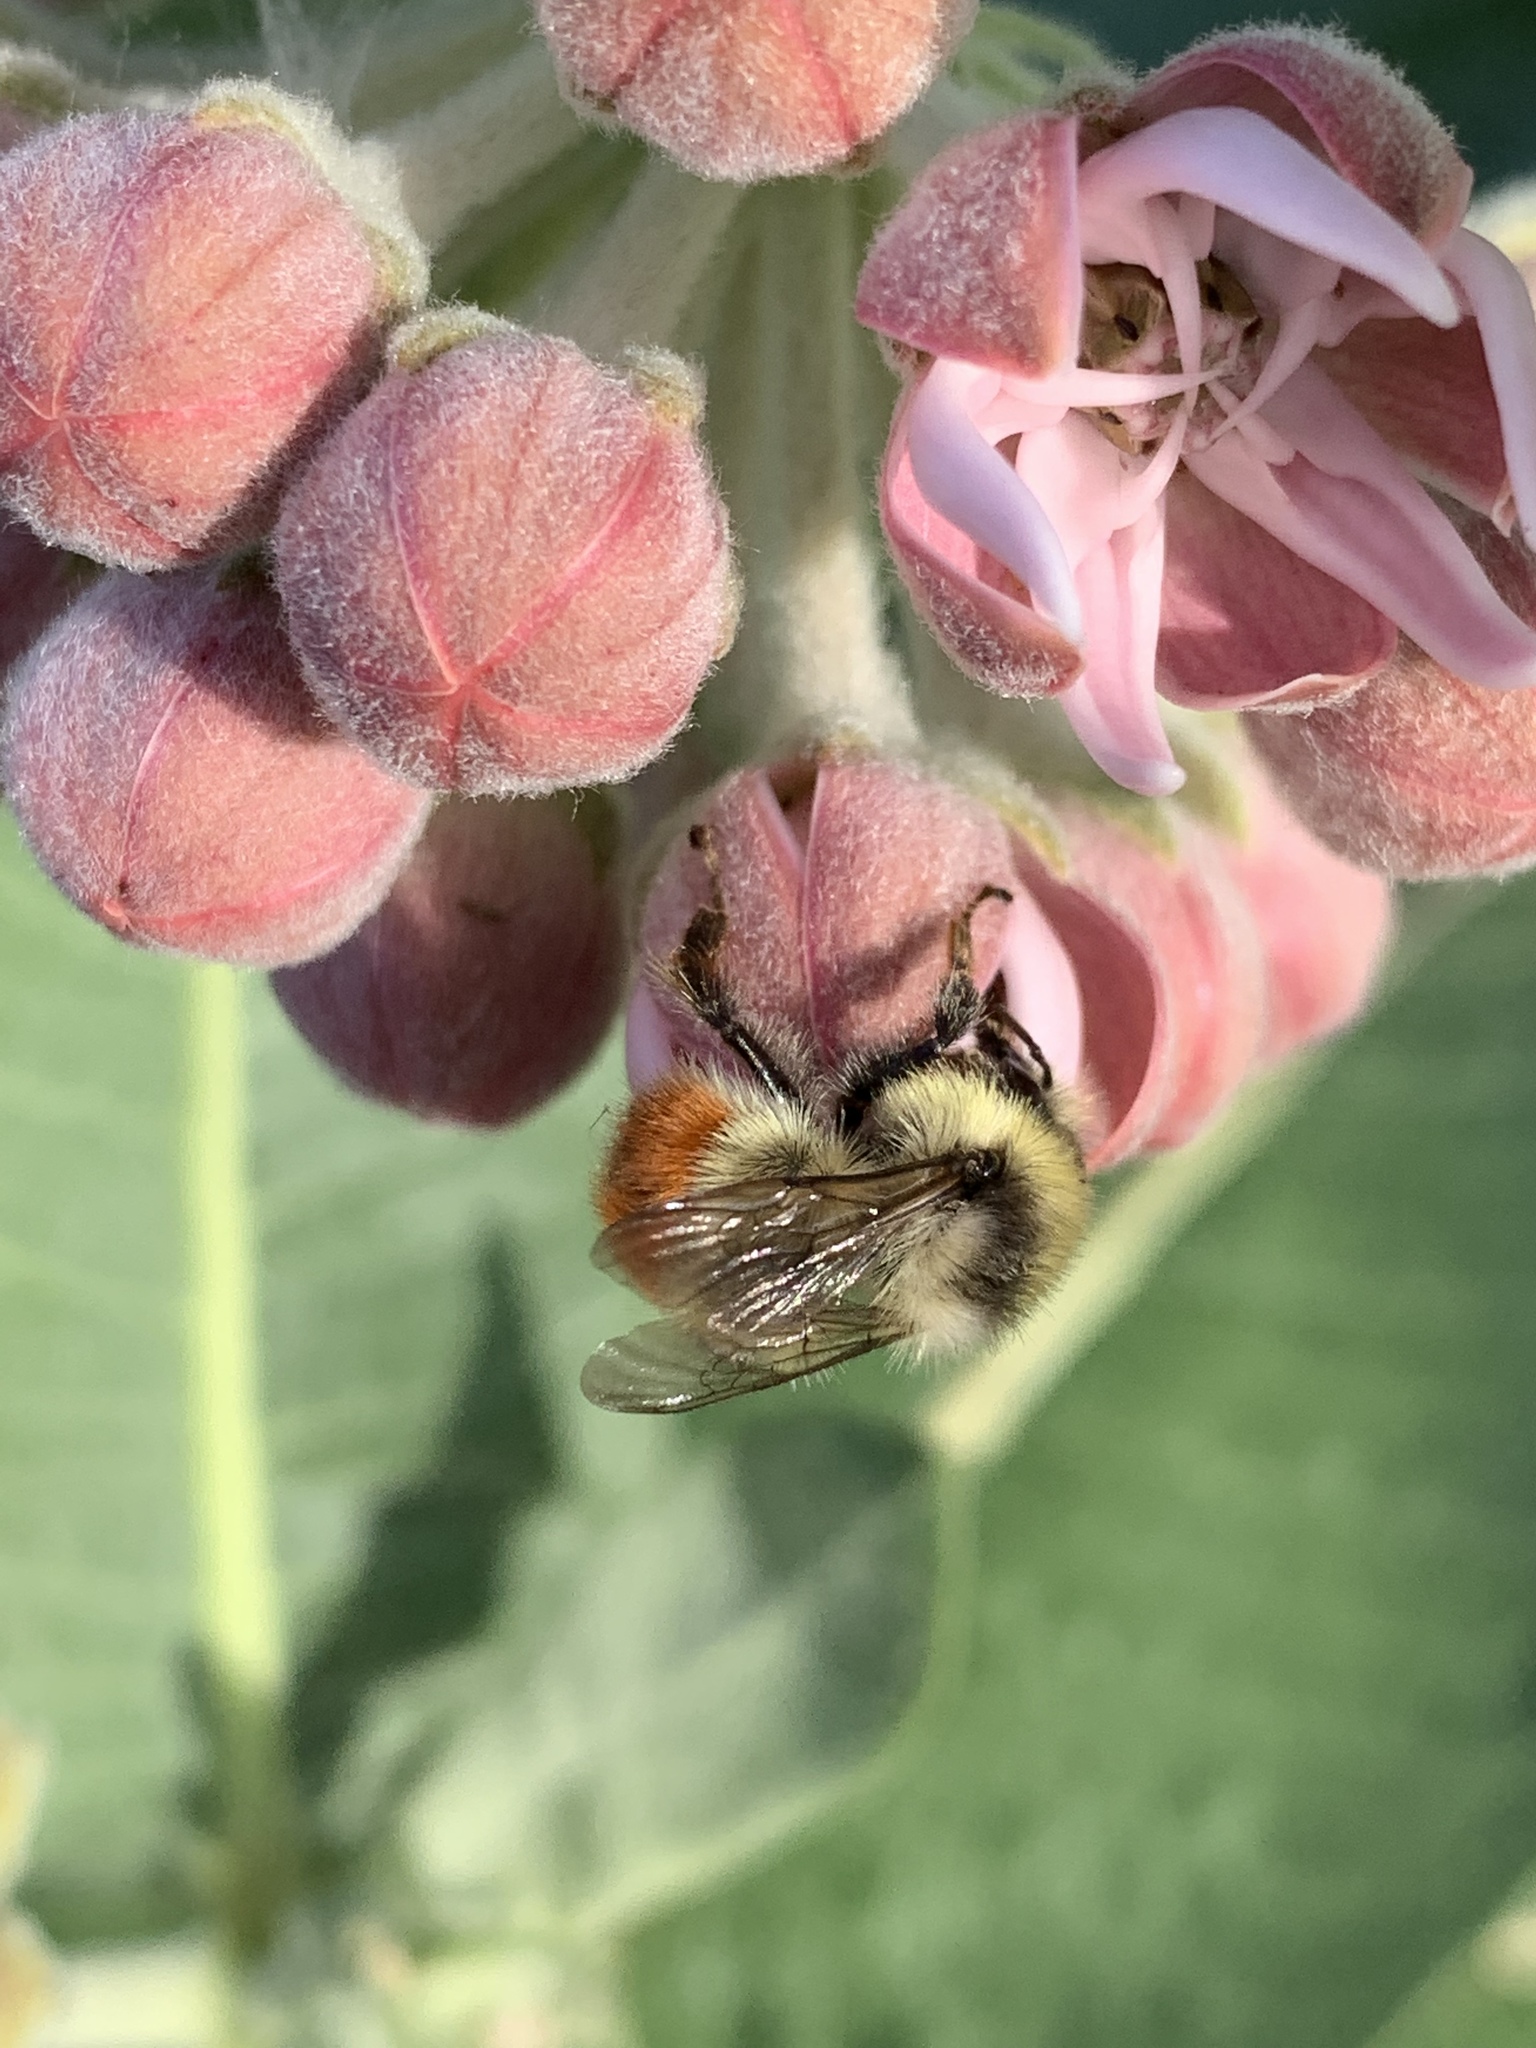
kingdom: Animalia
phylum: Arthropoda
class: Insecta
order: Hymenoptera
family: Apidae
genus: Bombus
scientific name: Bombus centralis
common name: Central bumble bee
